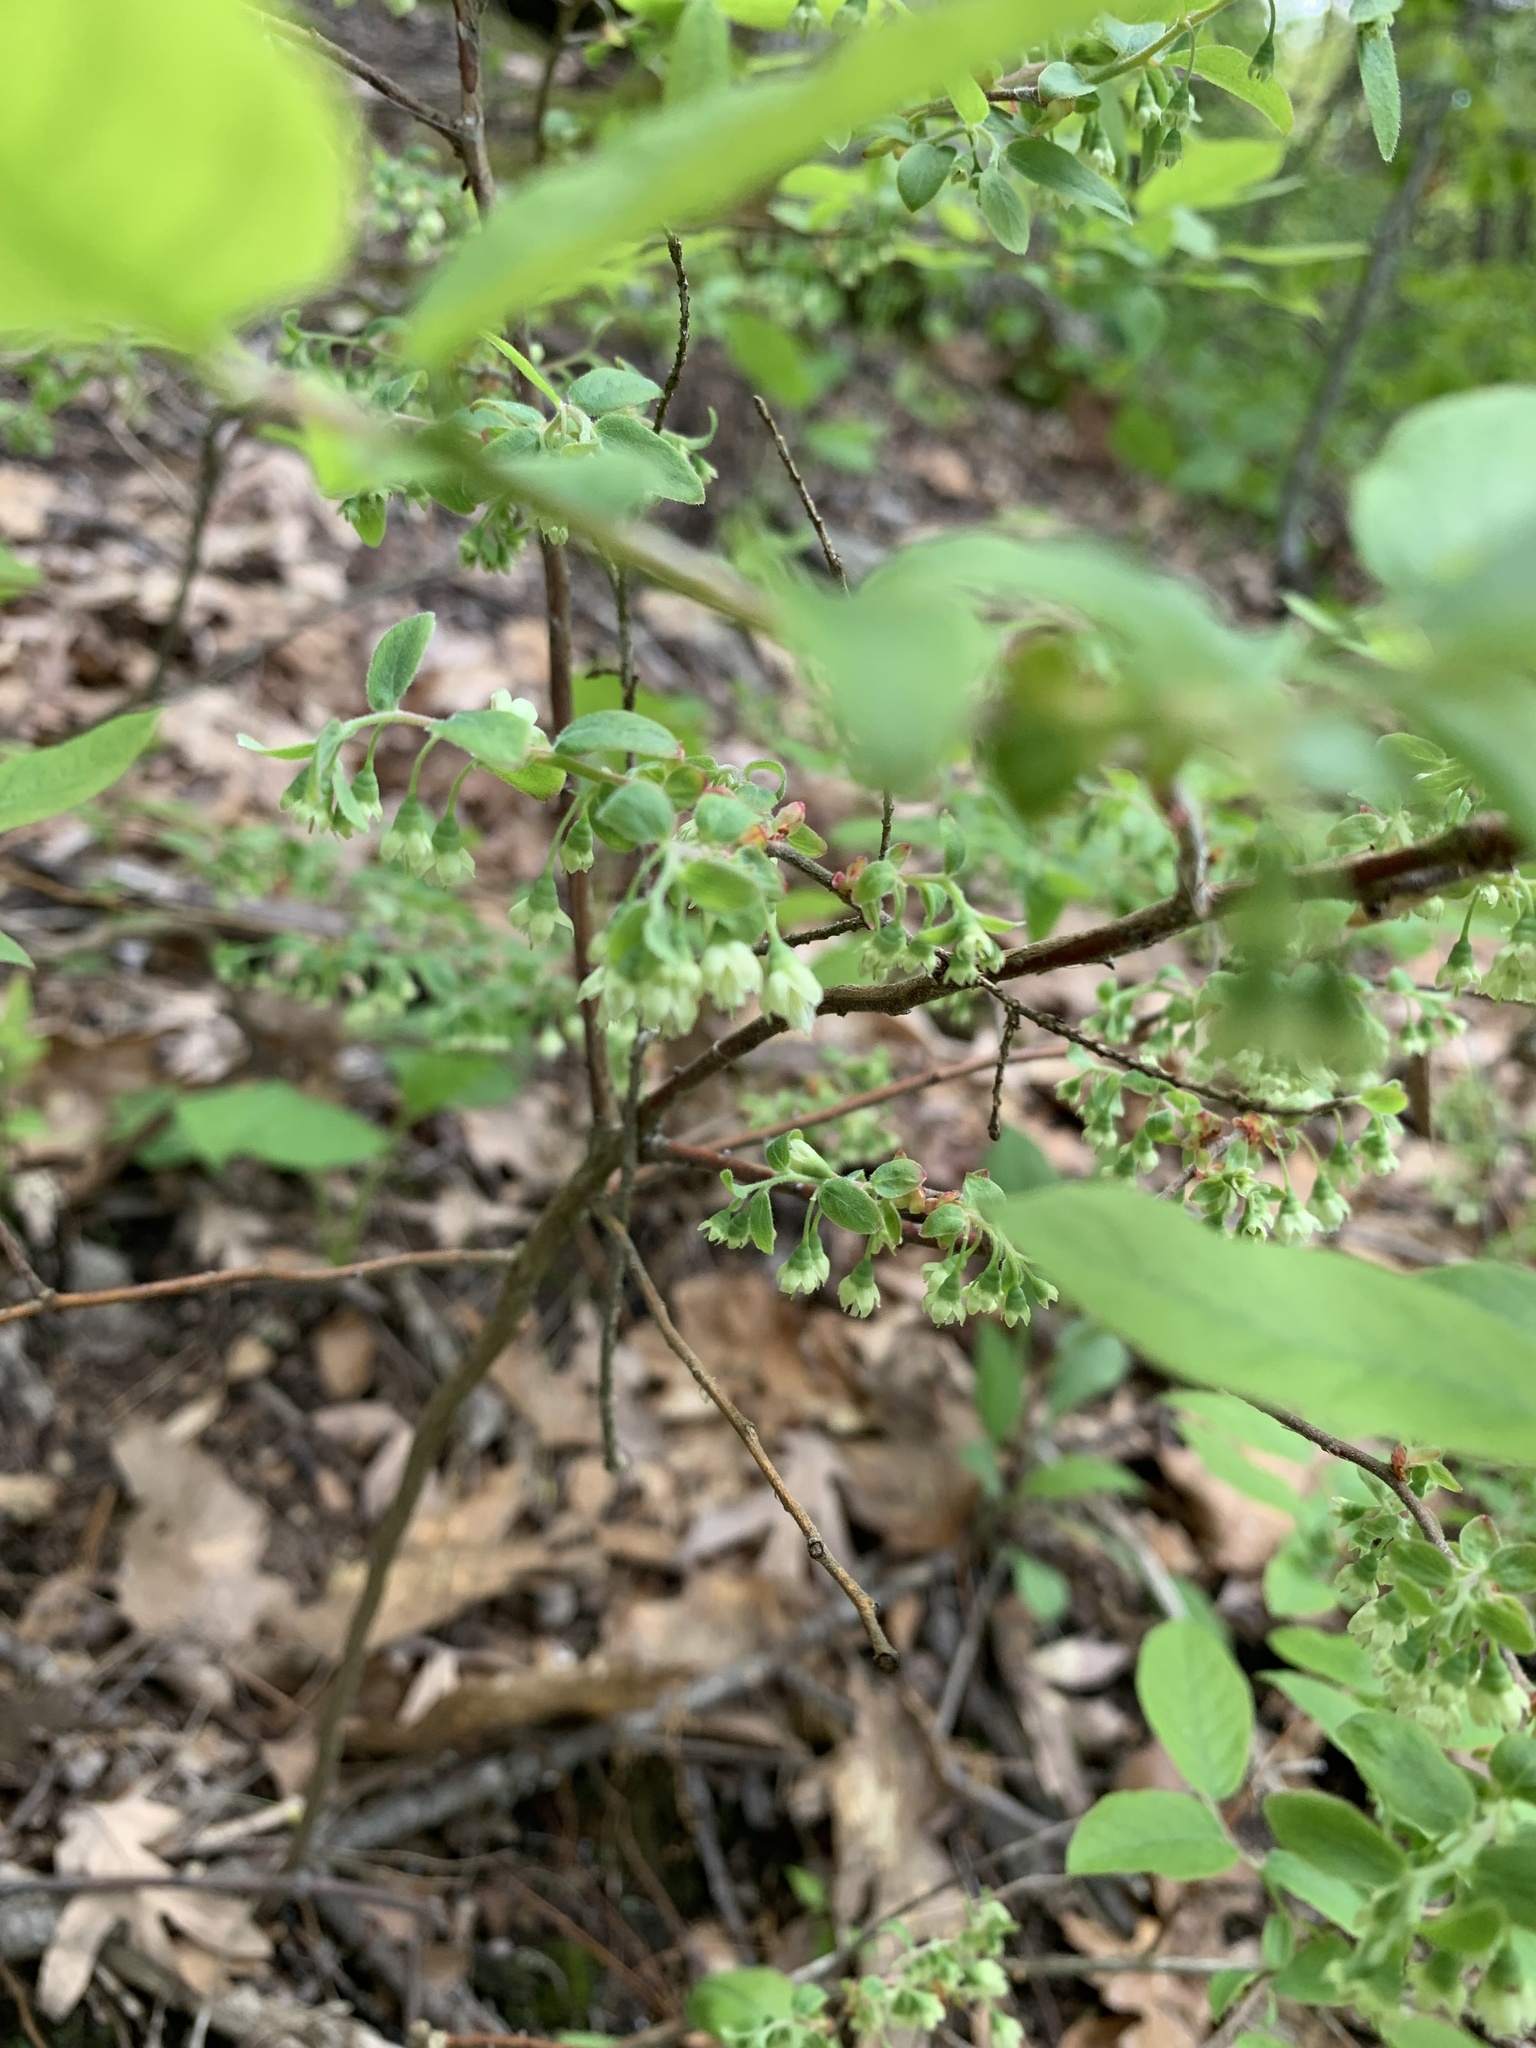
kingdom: Plantae
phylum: Tracheophyta
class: Magnoliopsida
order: Ericales
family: Ericaceae
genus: Vaccinium
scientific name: Vaccinium stamineum
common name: Deerberry
